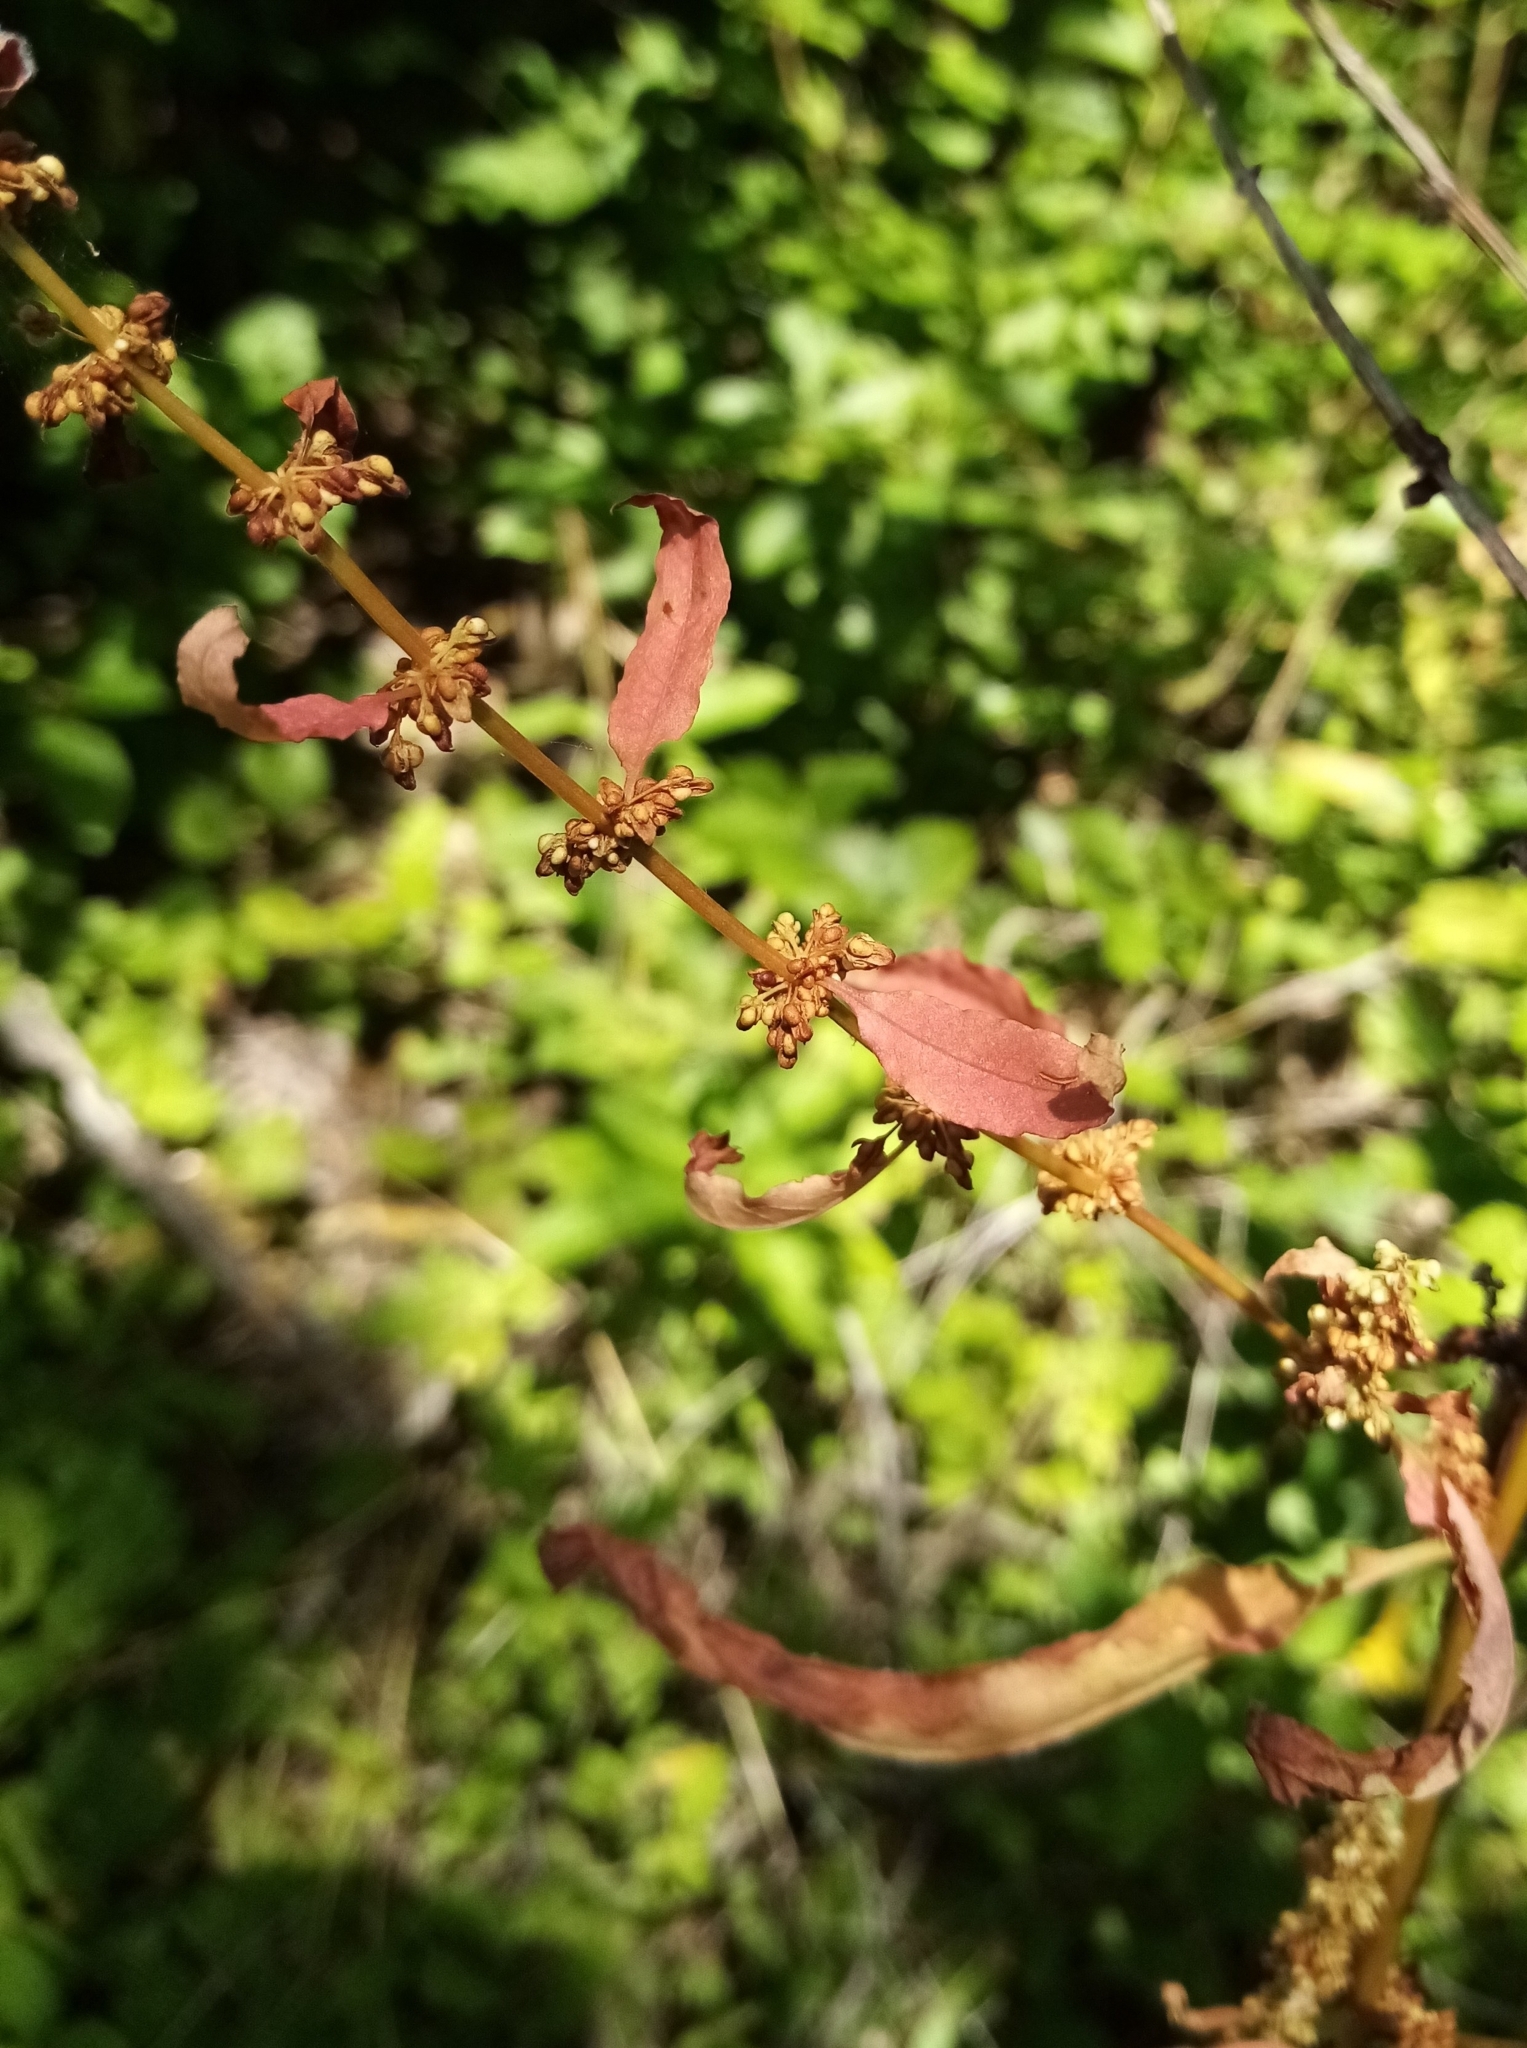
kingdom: Plantae
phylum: Tracheophyta
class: Magnoliopsida
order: Caryophyllales
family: Polygonaceae
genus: Rumex
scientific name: Rumex conglomeratus
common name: Clustered dock
